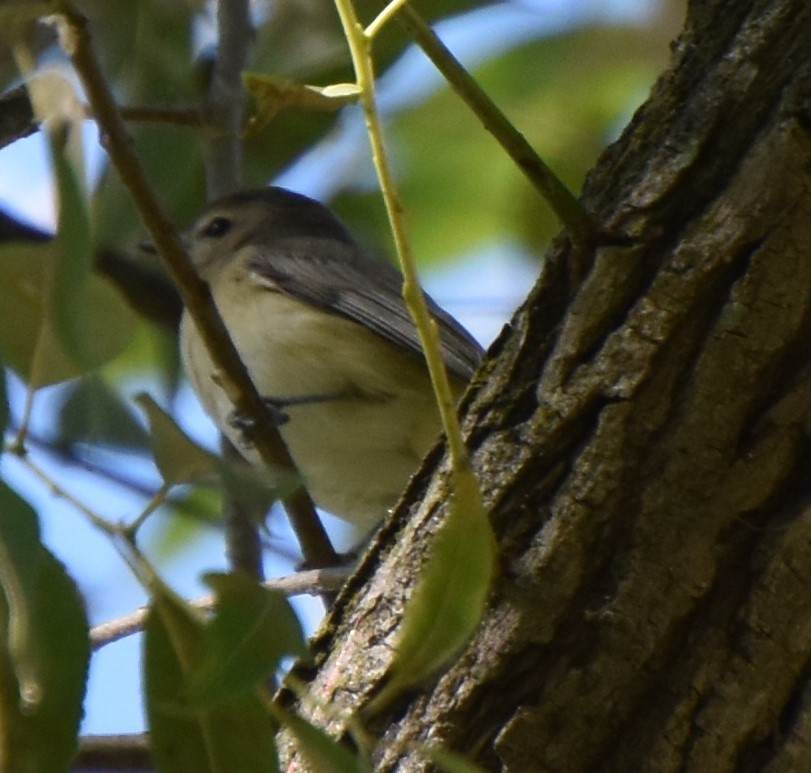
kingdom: Animalia
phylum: Chordata
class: Aves
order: Passeriformes
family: Vireonidae
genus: Vireo
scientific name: Vireo gilvus
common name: Warbling vireo
